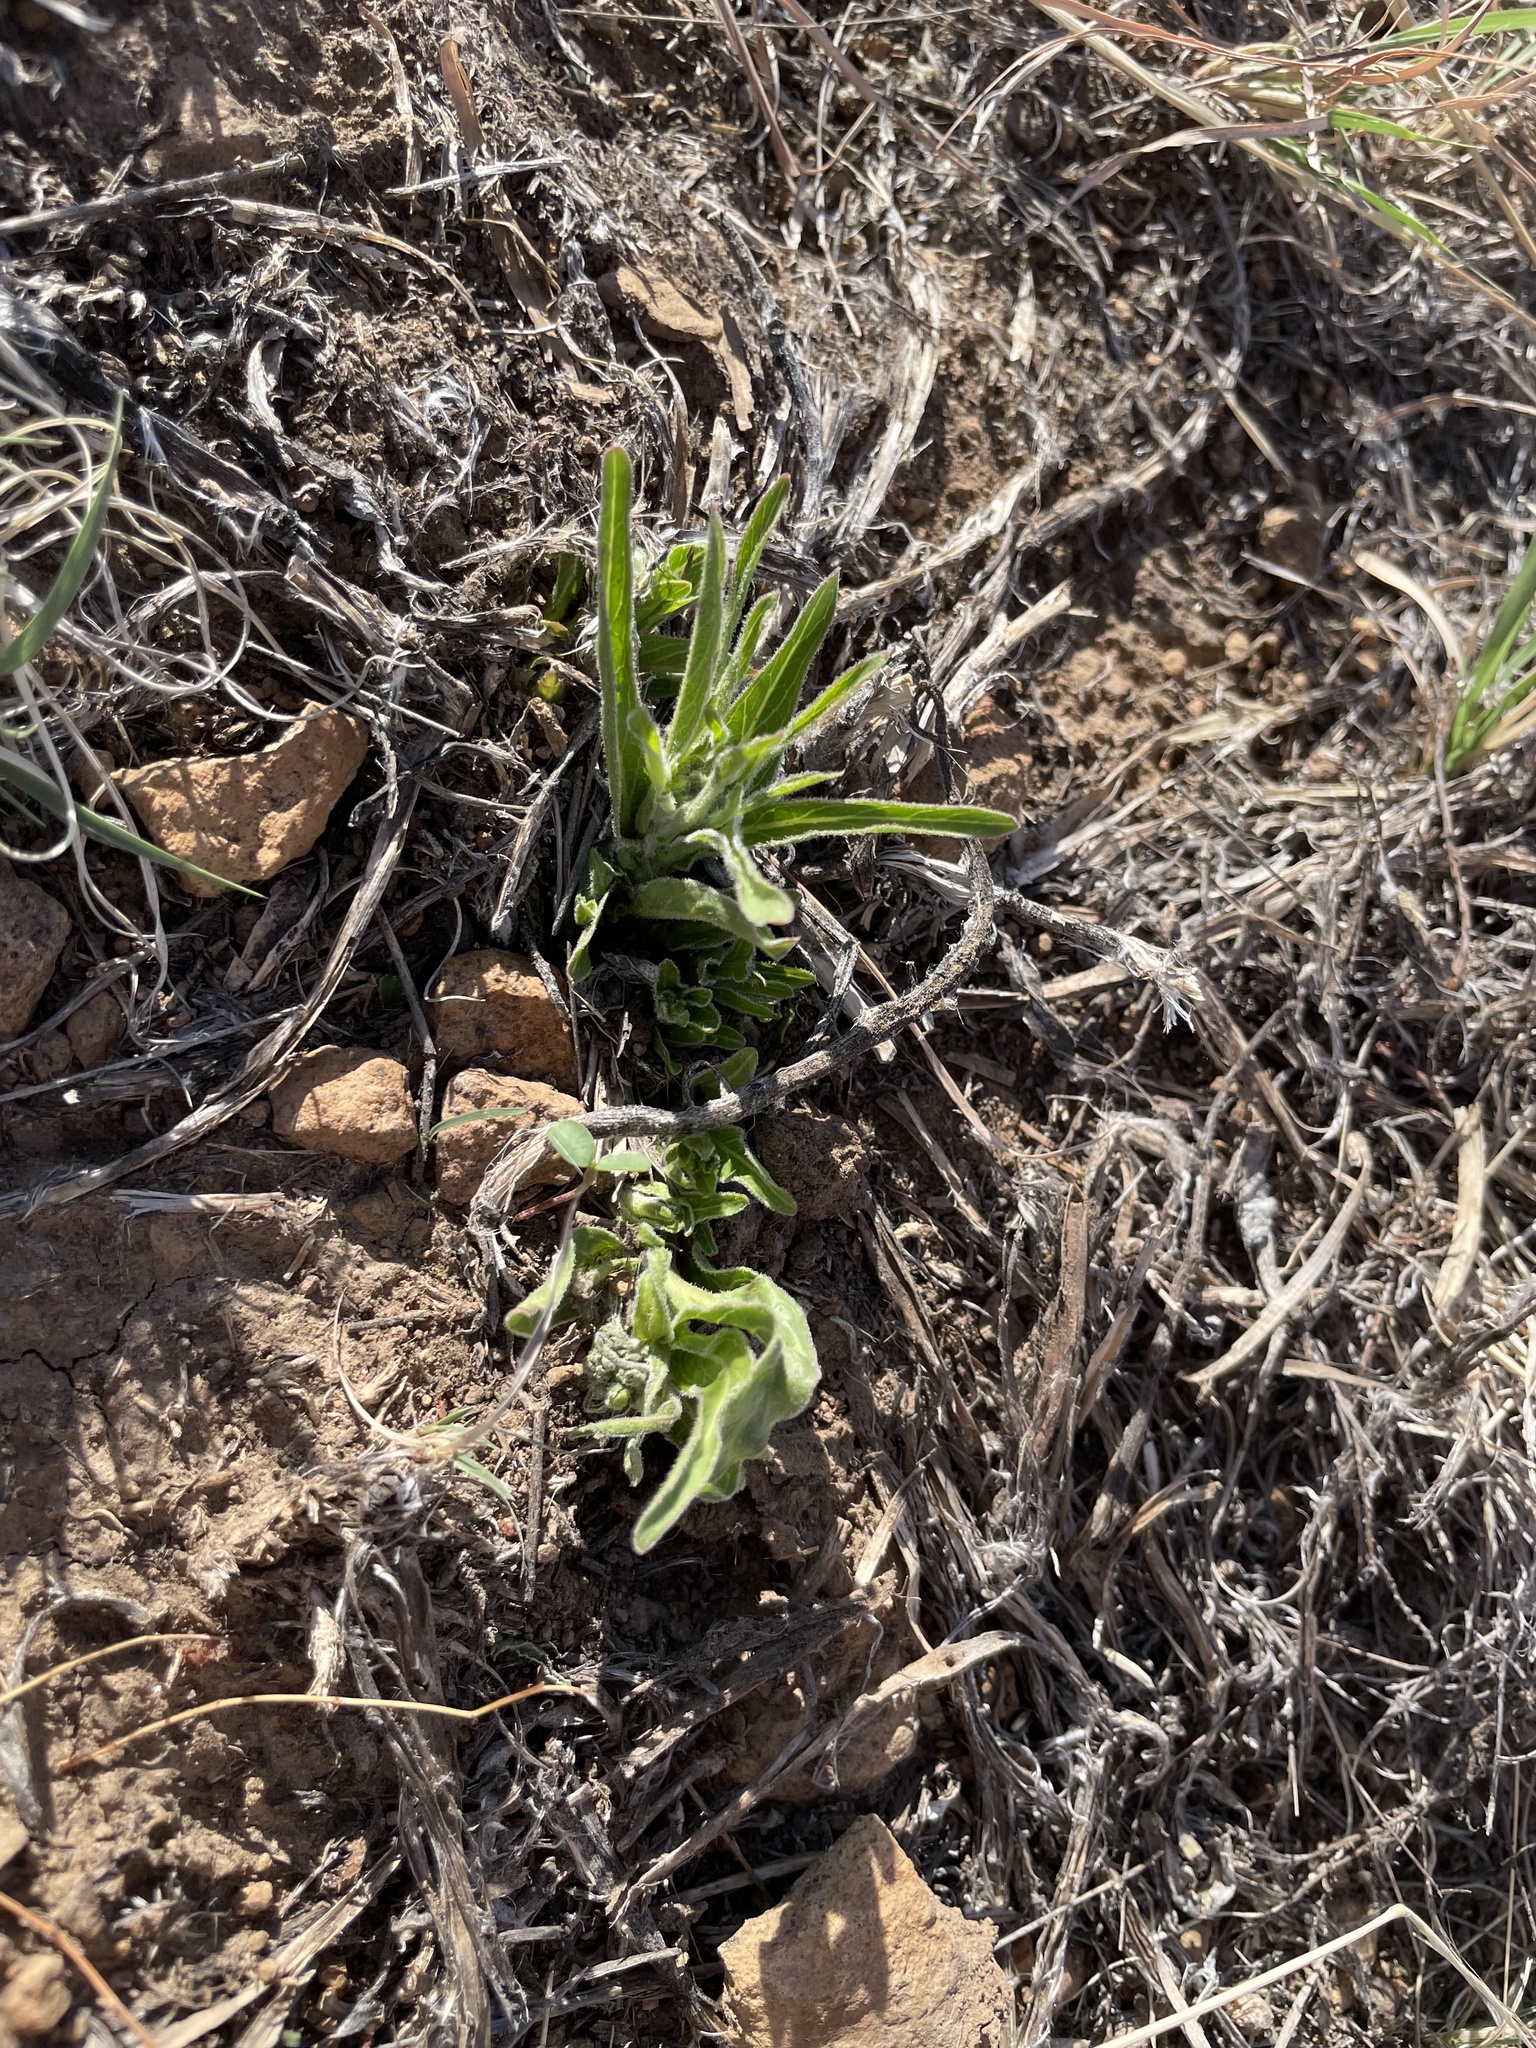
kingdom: Plantae
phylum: Tracheophyta
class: Magnoliopsida
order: Gentianales
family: Apocynaceae
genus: Asclepias
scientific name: Asclepias asperula
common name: Antelope horns
